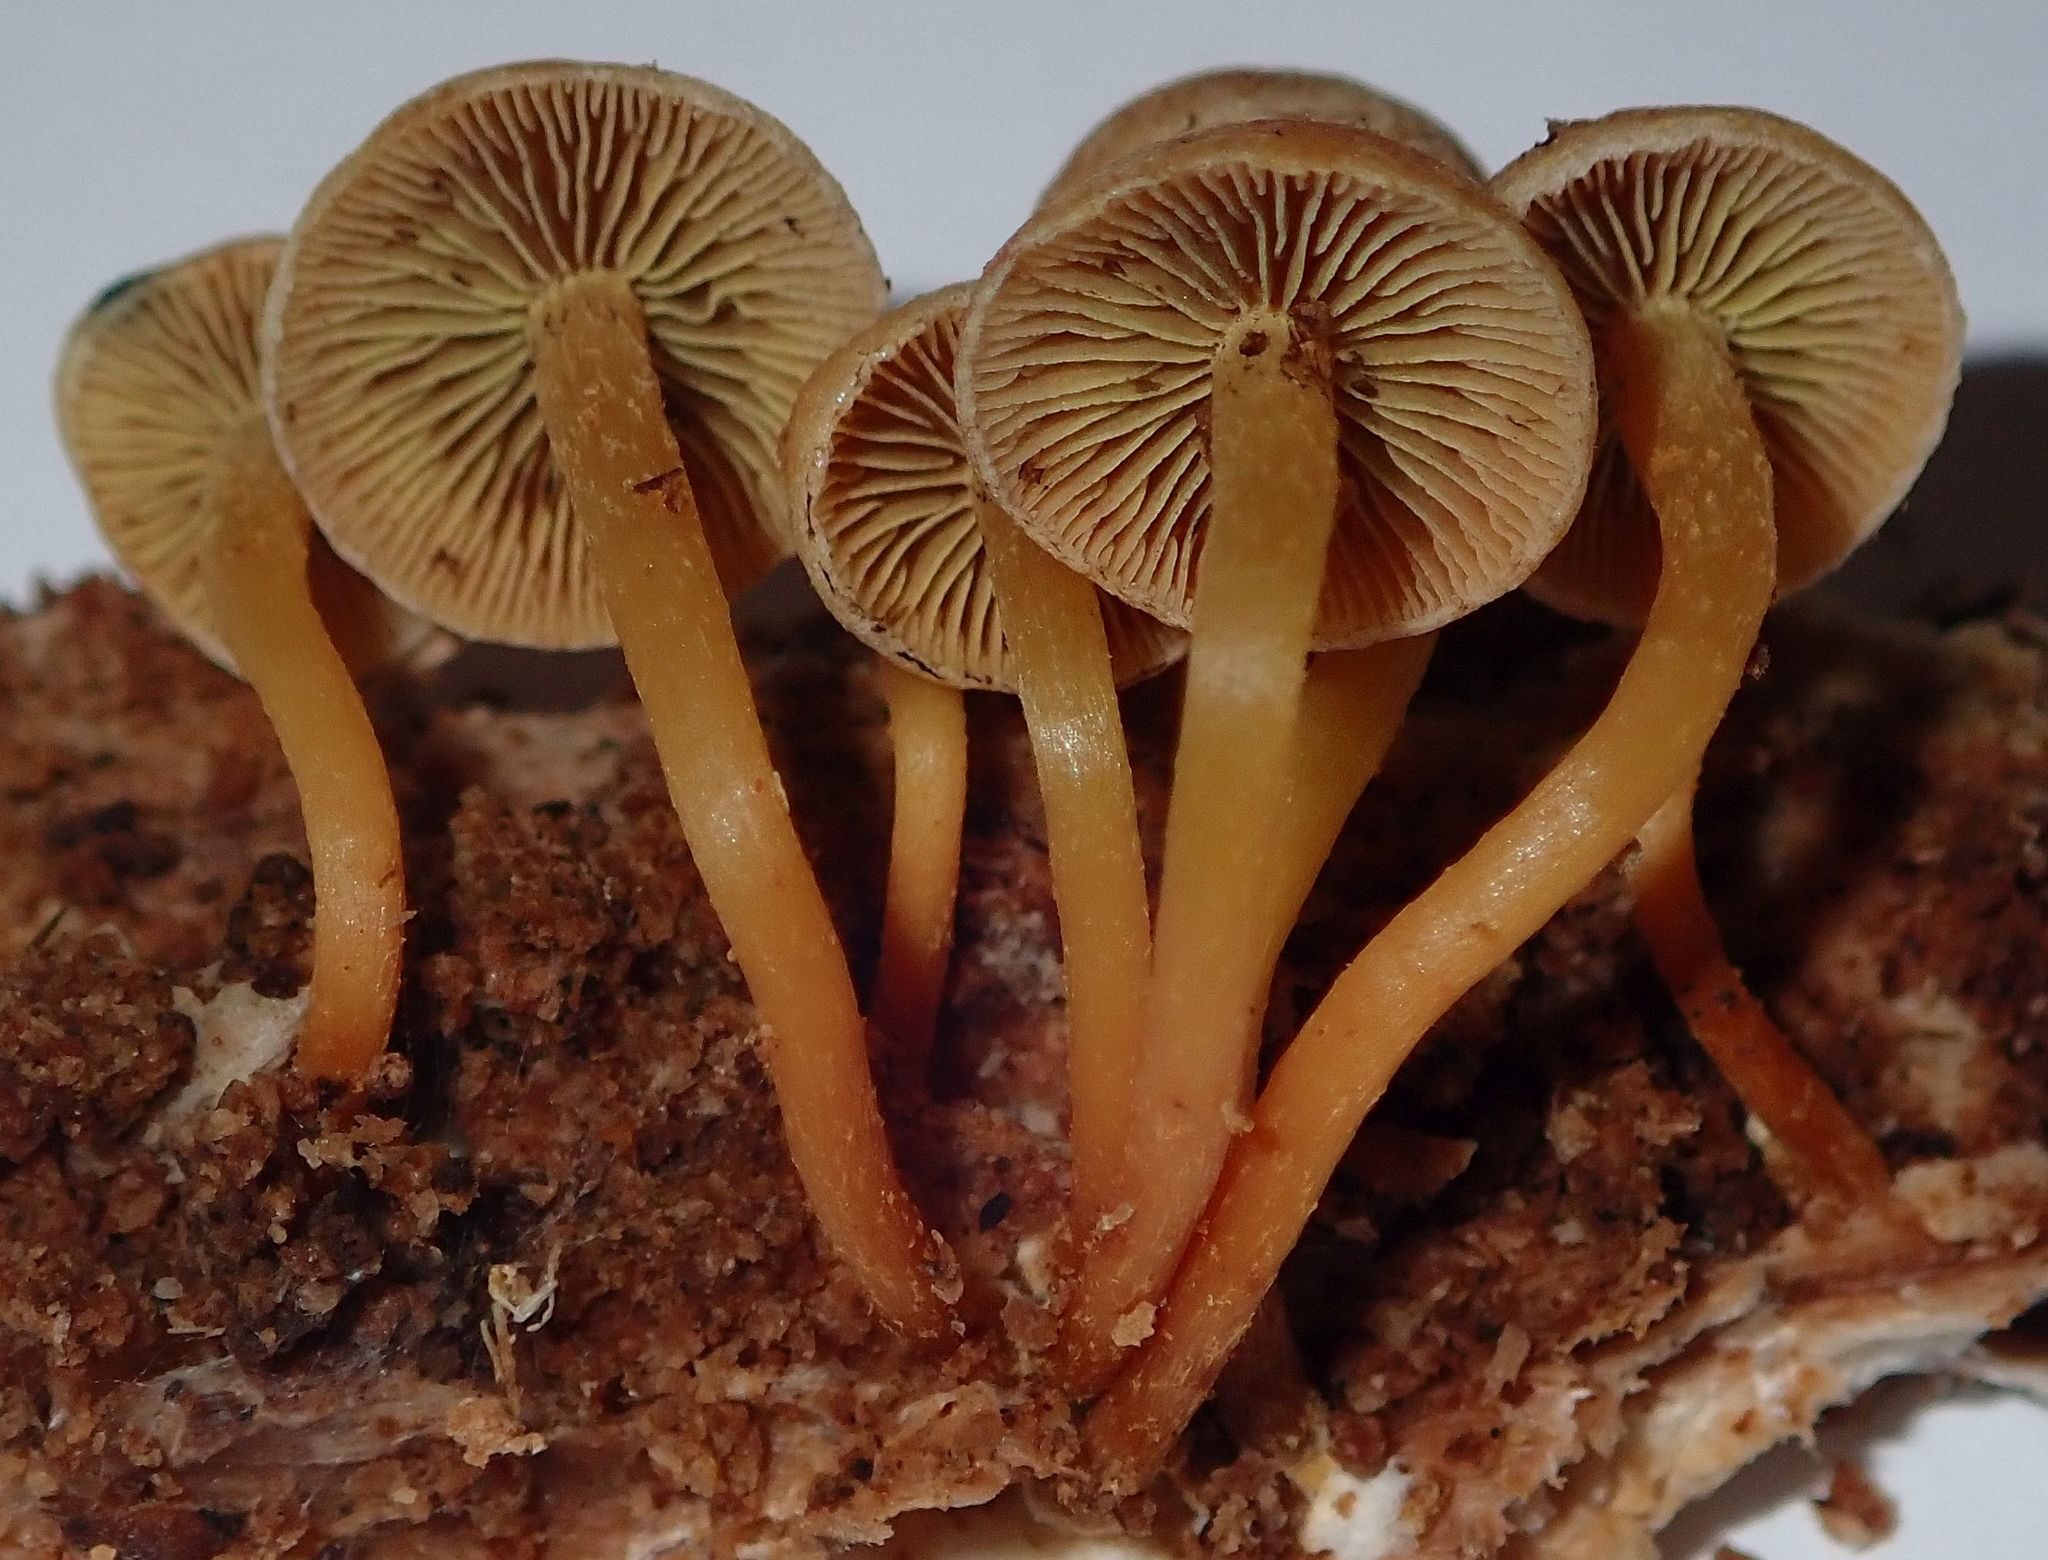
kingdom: Fungi
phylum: Basidiomycota
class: Agaricomycetes
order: Agaricales
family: Strophariaceae
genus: Hypholoma
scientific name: Hypholoma acutum
